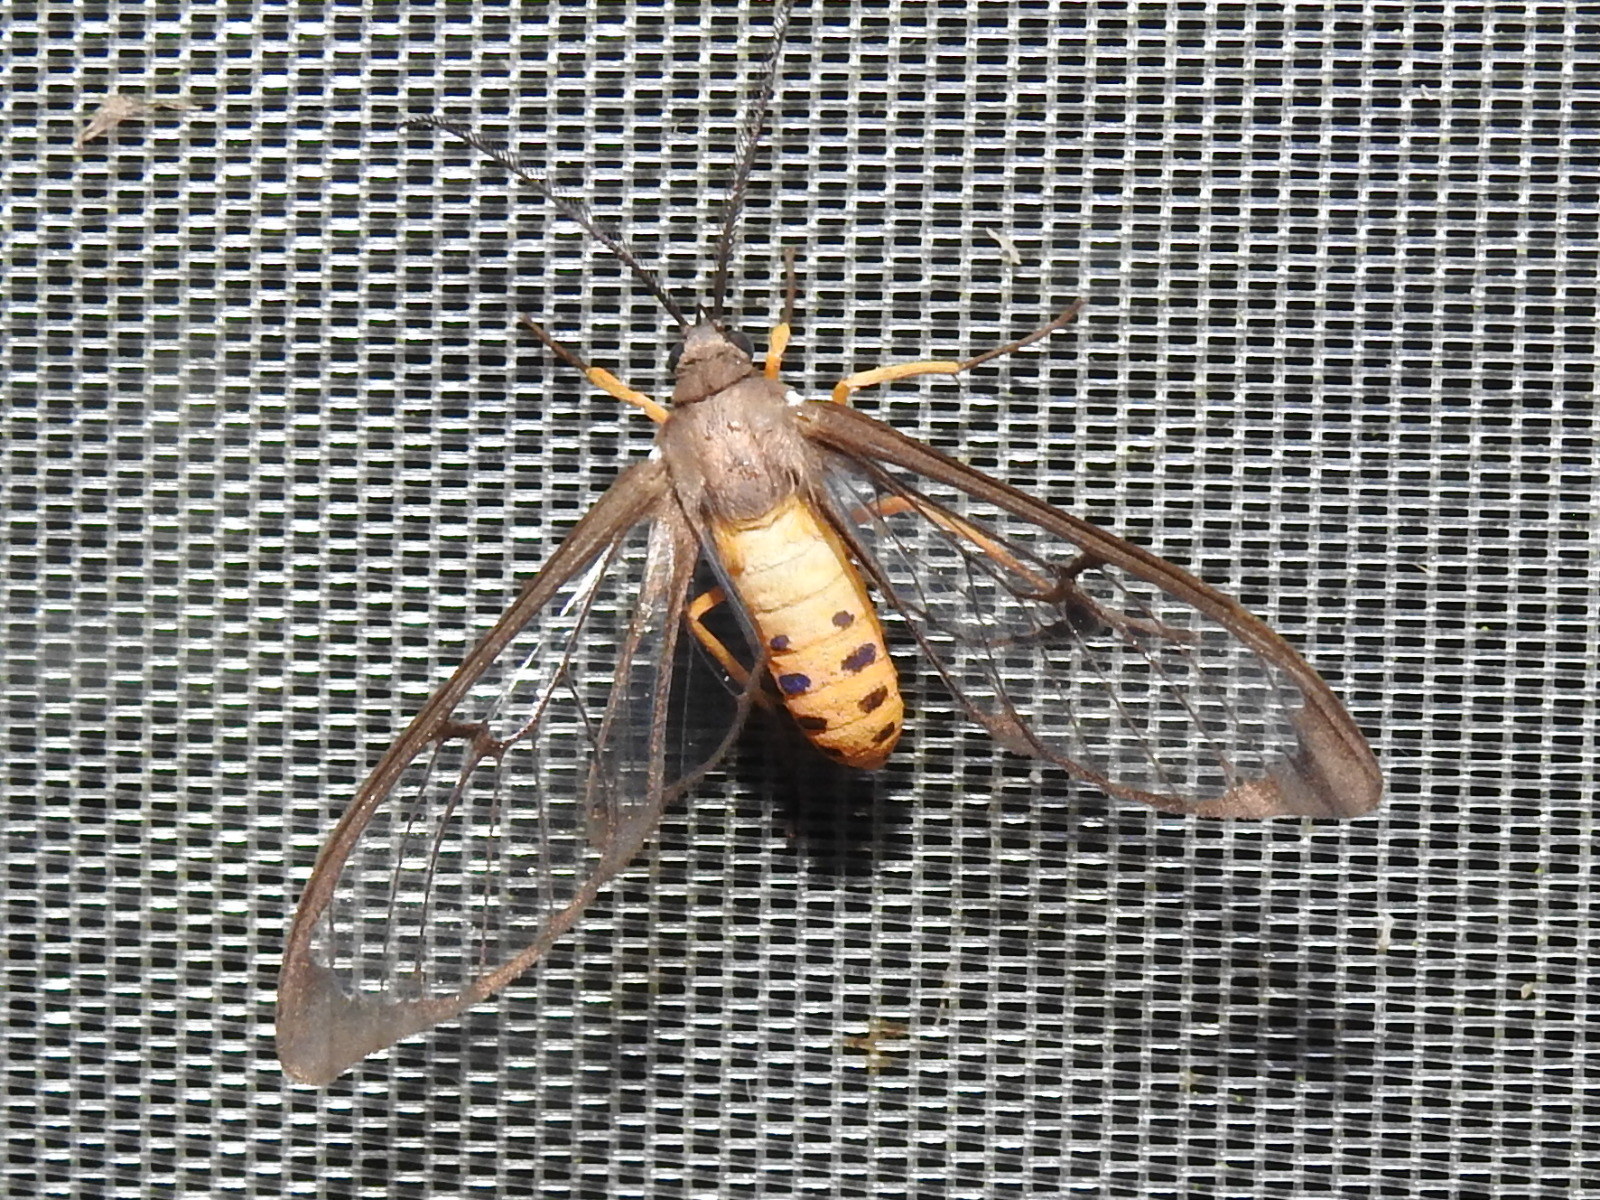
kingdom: Animalia
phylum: Arthropoda
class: Insecta
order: Lepidoptera
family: Erebidae
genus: Mesothen
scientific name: Mesothen montana
